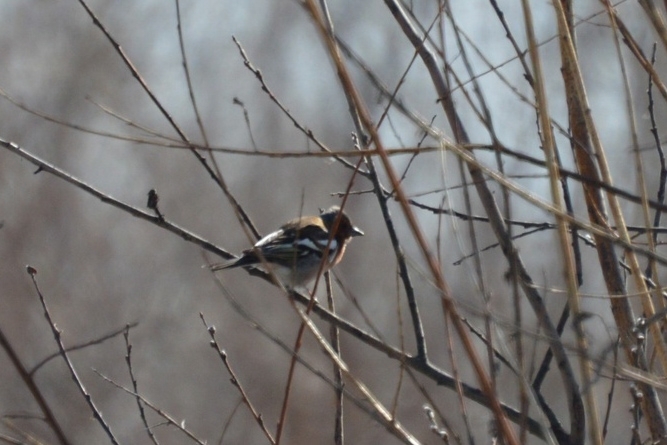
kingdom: Animalia
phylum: Chordata
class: Aves
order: Passeriformes
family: Fringillidae
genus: Fringilla
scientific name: Fringilla coelebs
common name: Common chaffinch
